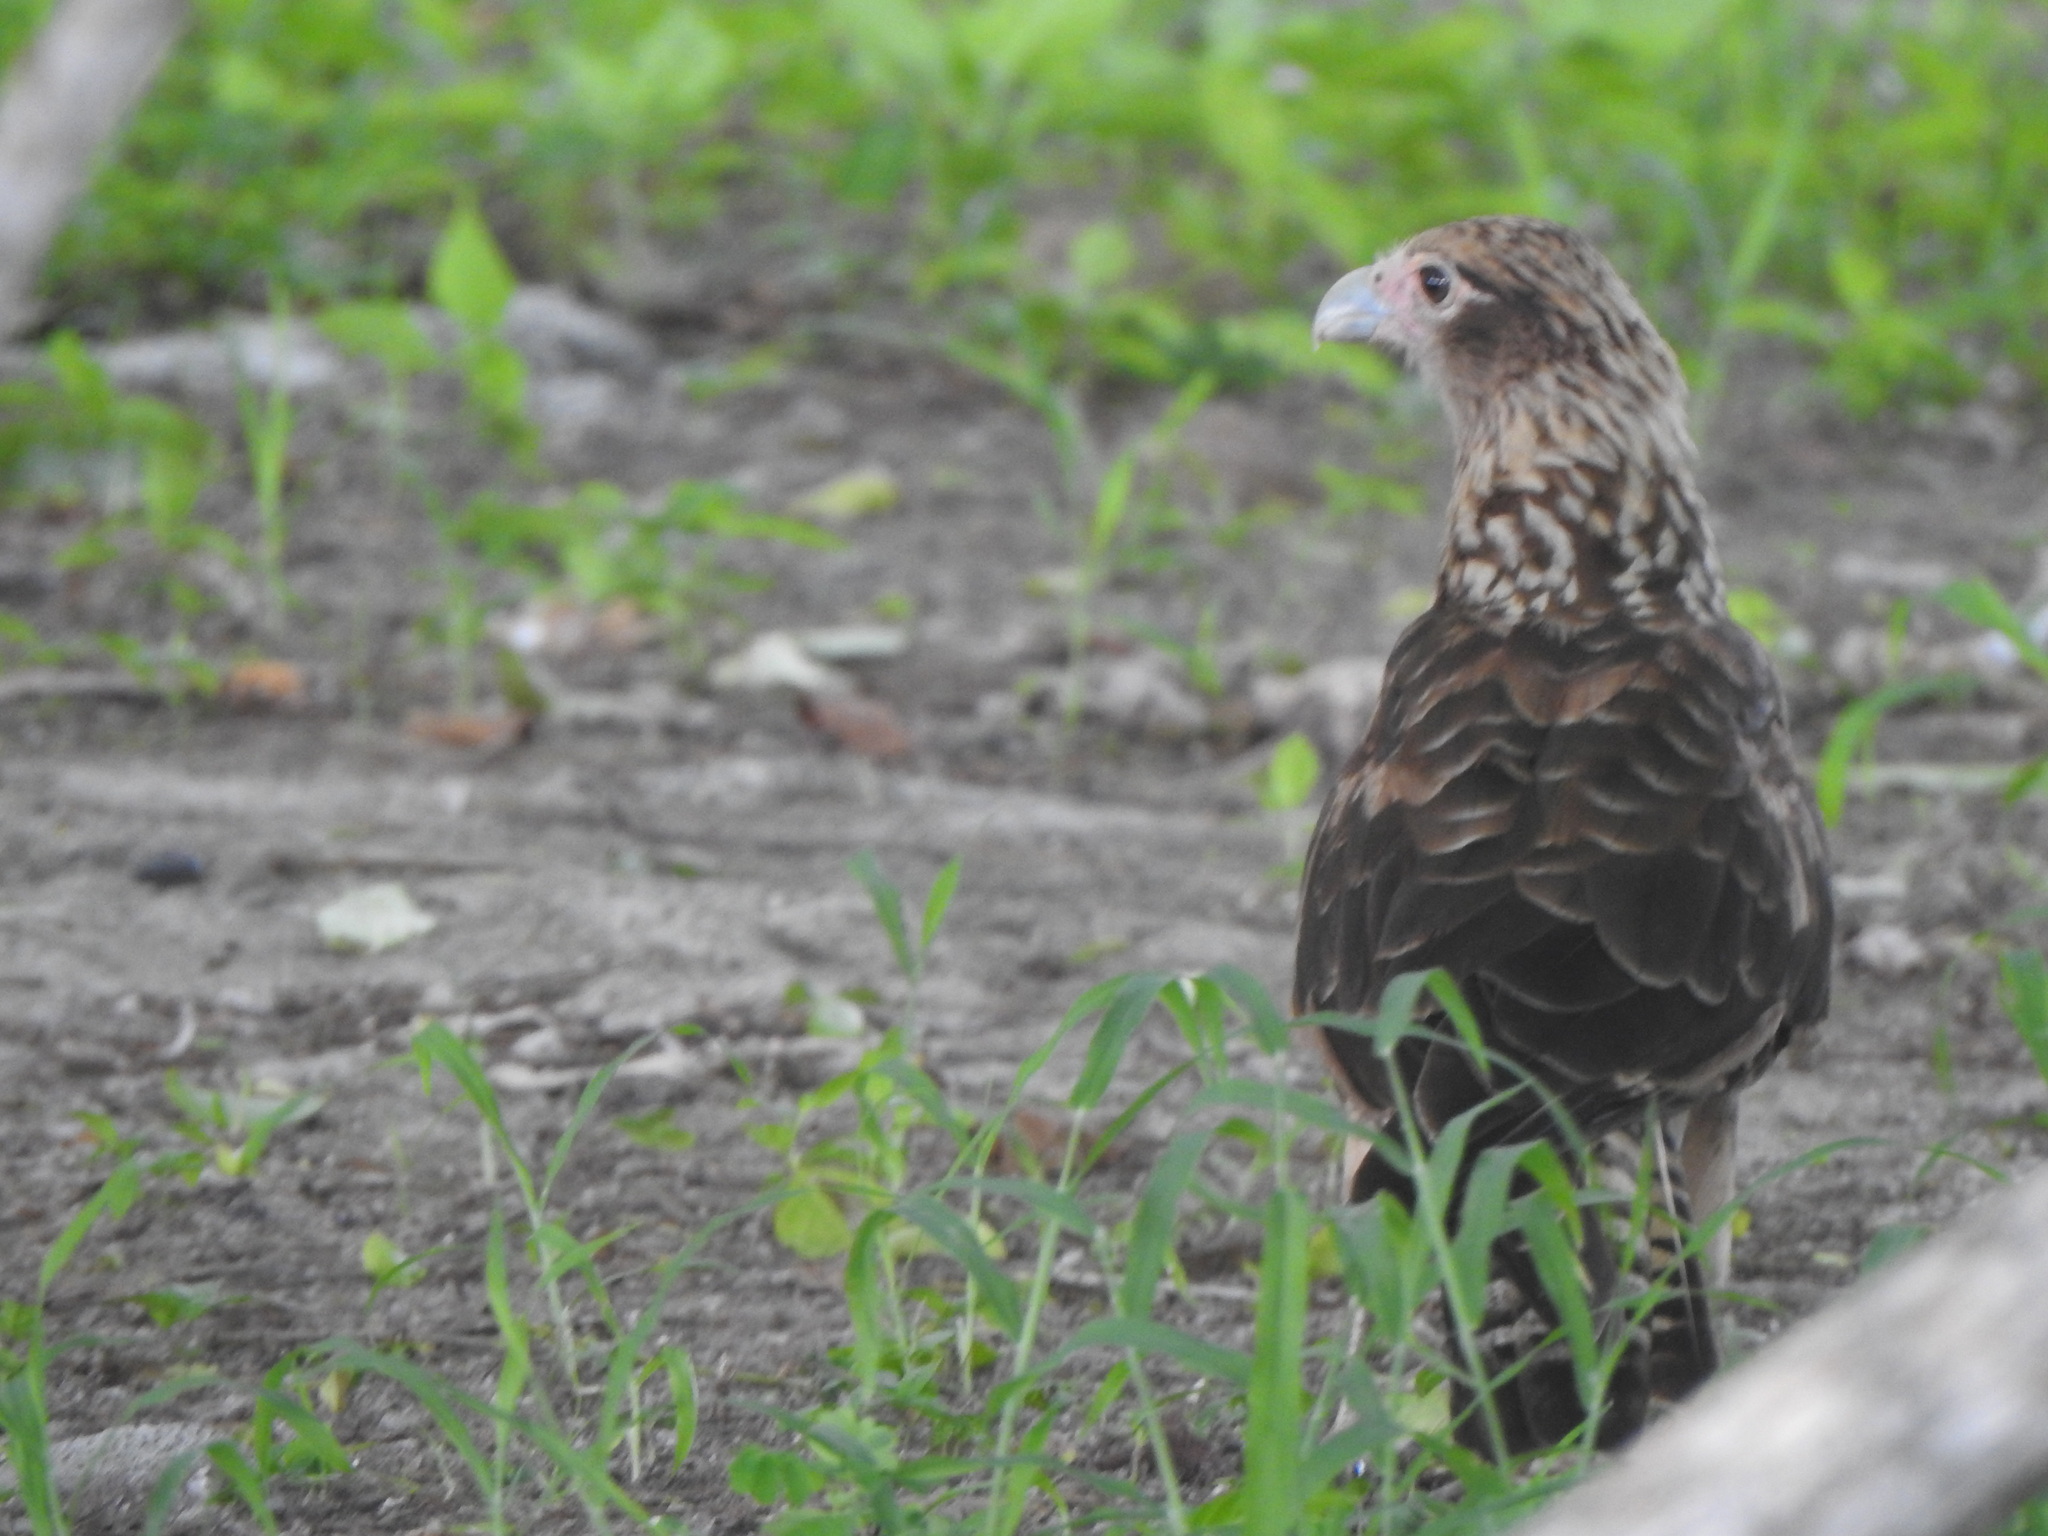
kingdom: Animalia
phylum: Chordata
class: Aves
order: Falconiformes
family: Falconidae
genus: Daptrius
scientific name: Daptrius
